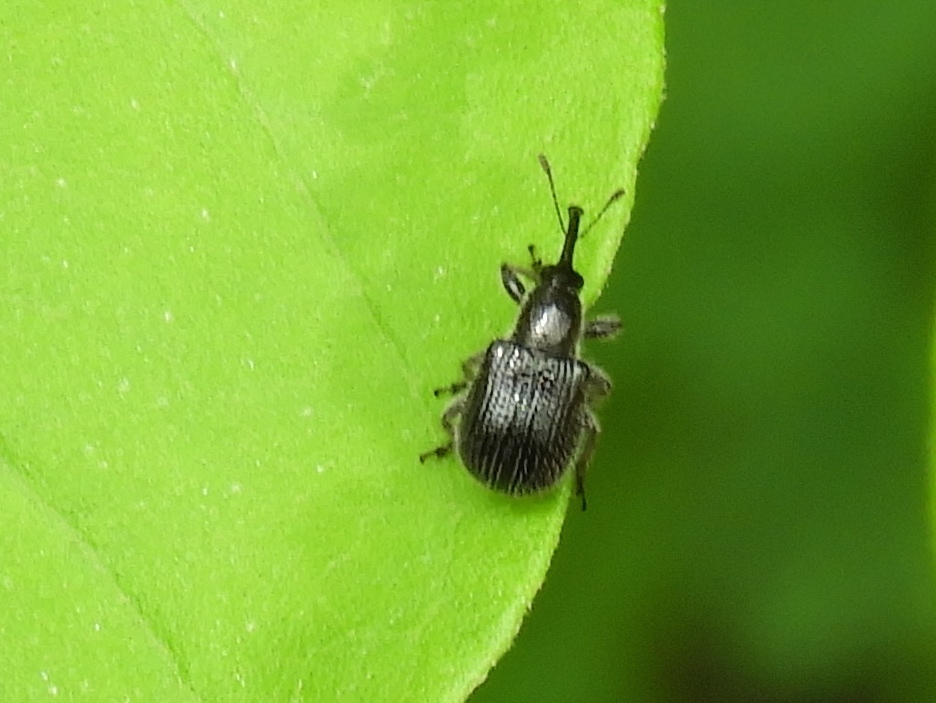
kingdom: Animalia
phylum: Arthropoda
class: Insecta
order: Coleoptera
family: Rhynchitidae
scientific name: Rhynchitidae
